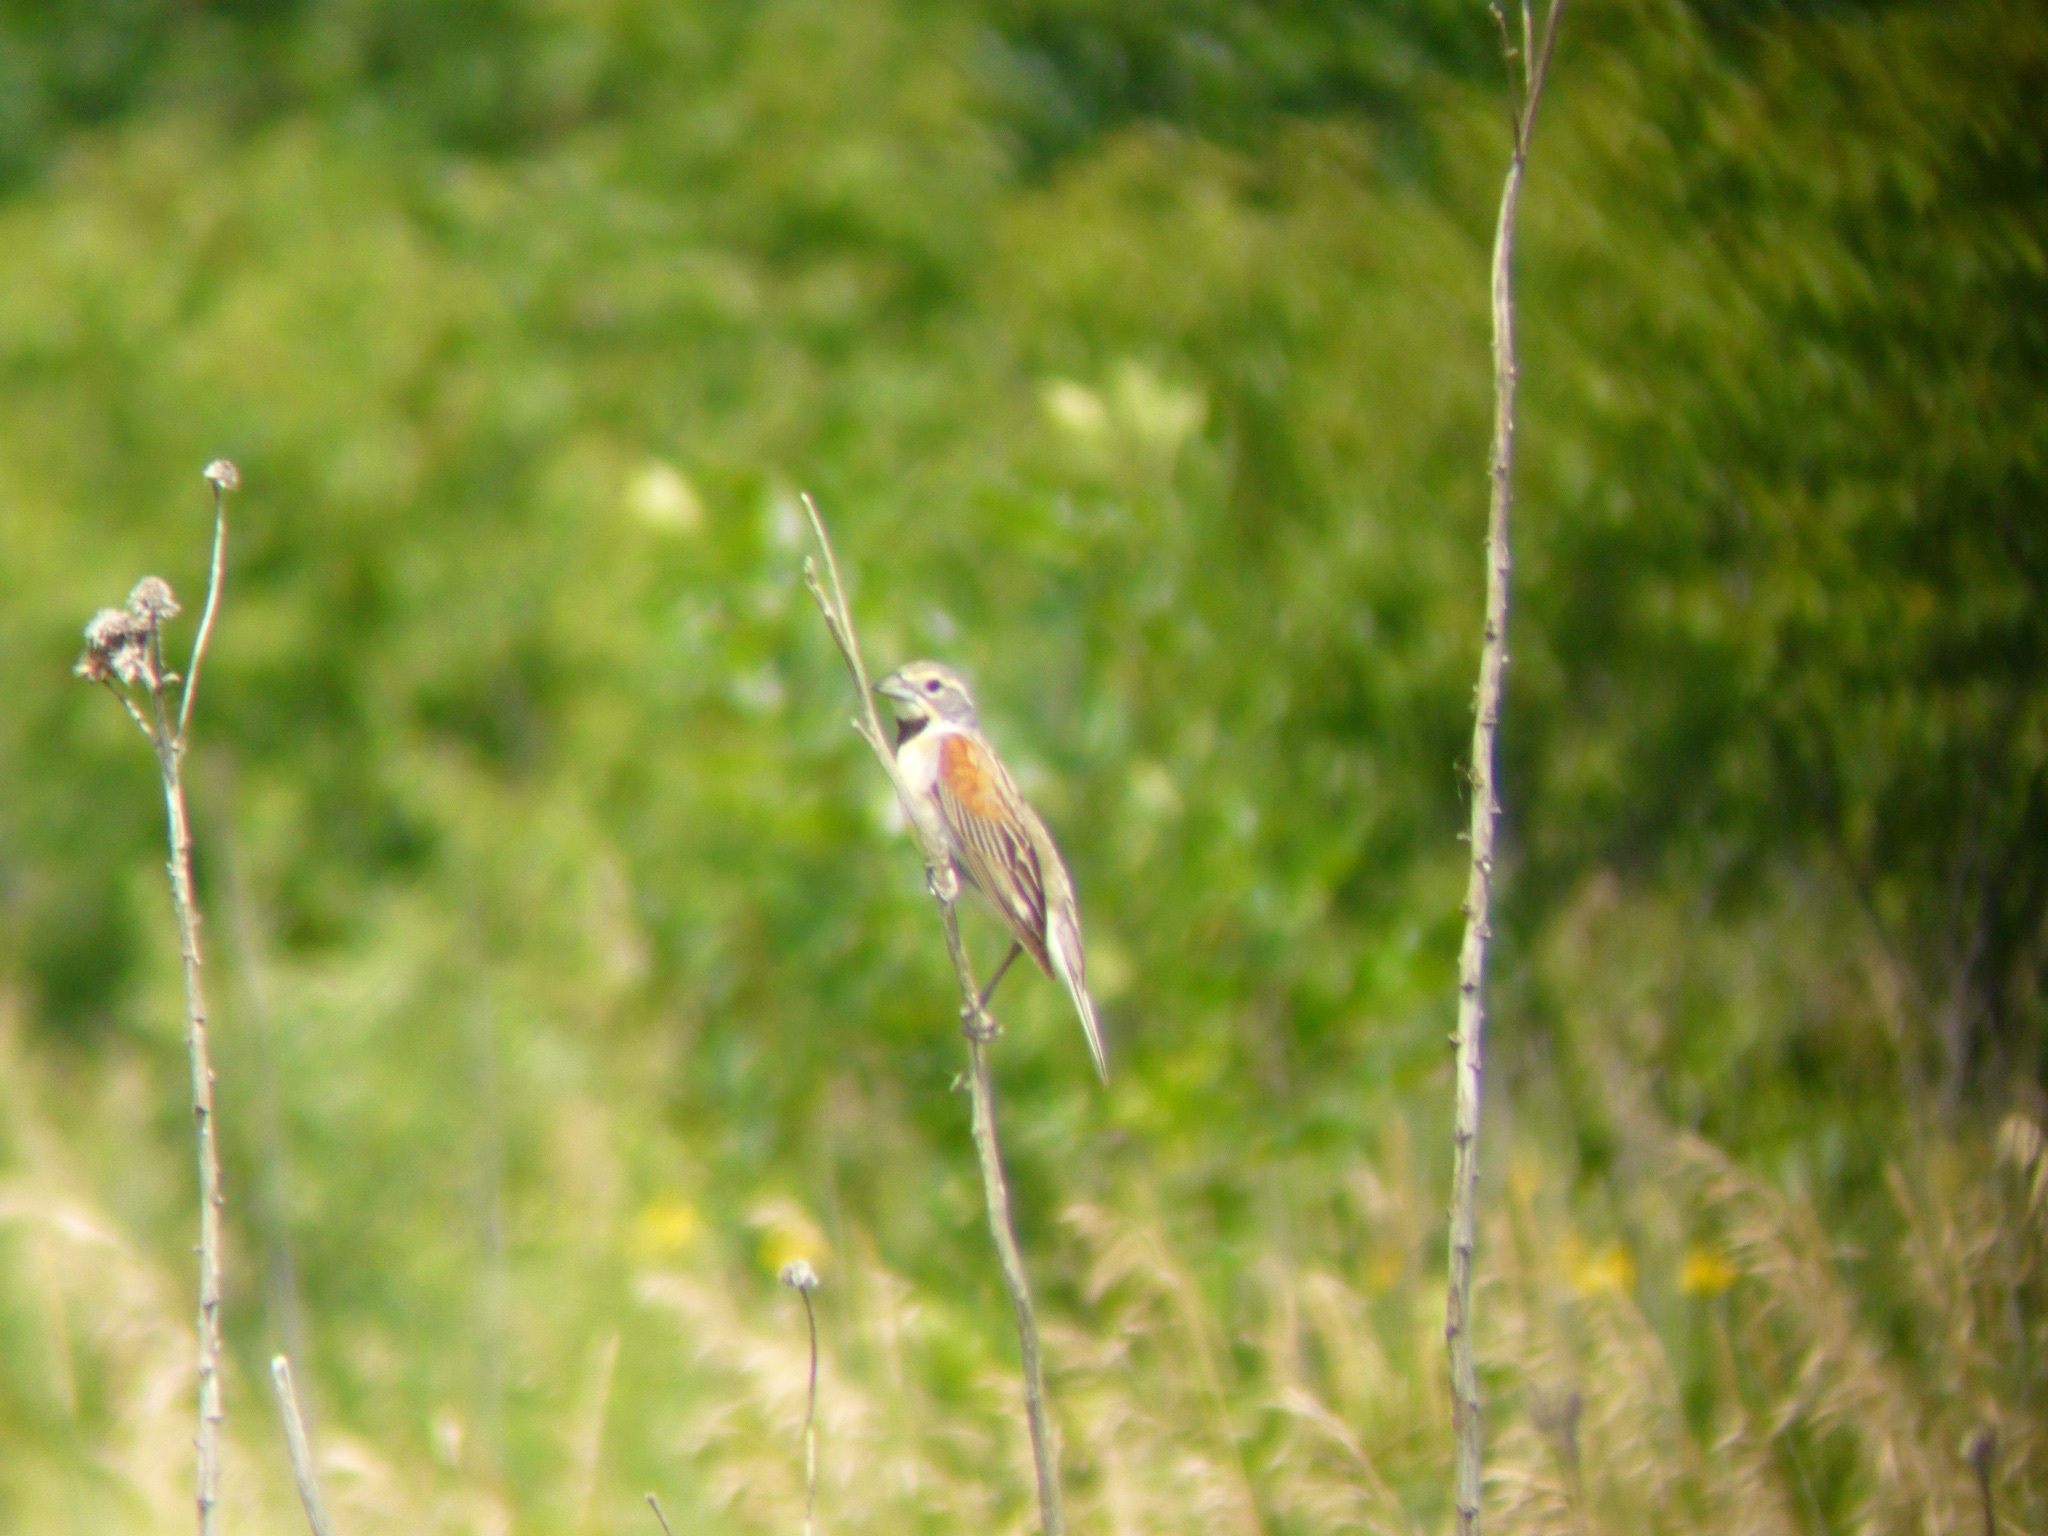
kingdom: Animalia
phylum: Chordata
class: Aves
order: Passeriformes
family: Cardinalidae
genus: Spiza
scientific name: Spiza americana
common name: Dickcissel
